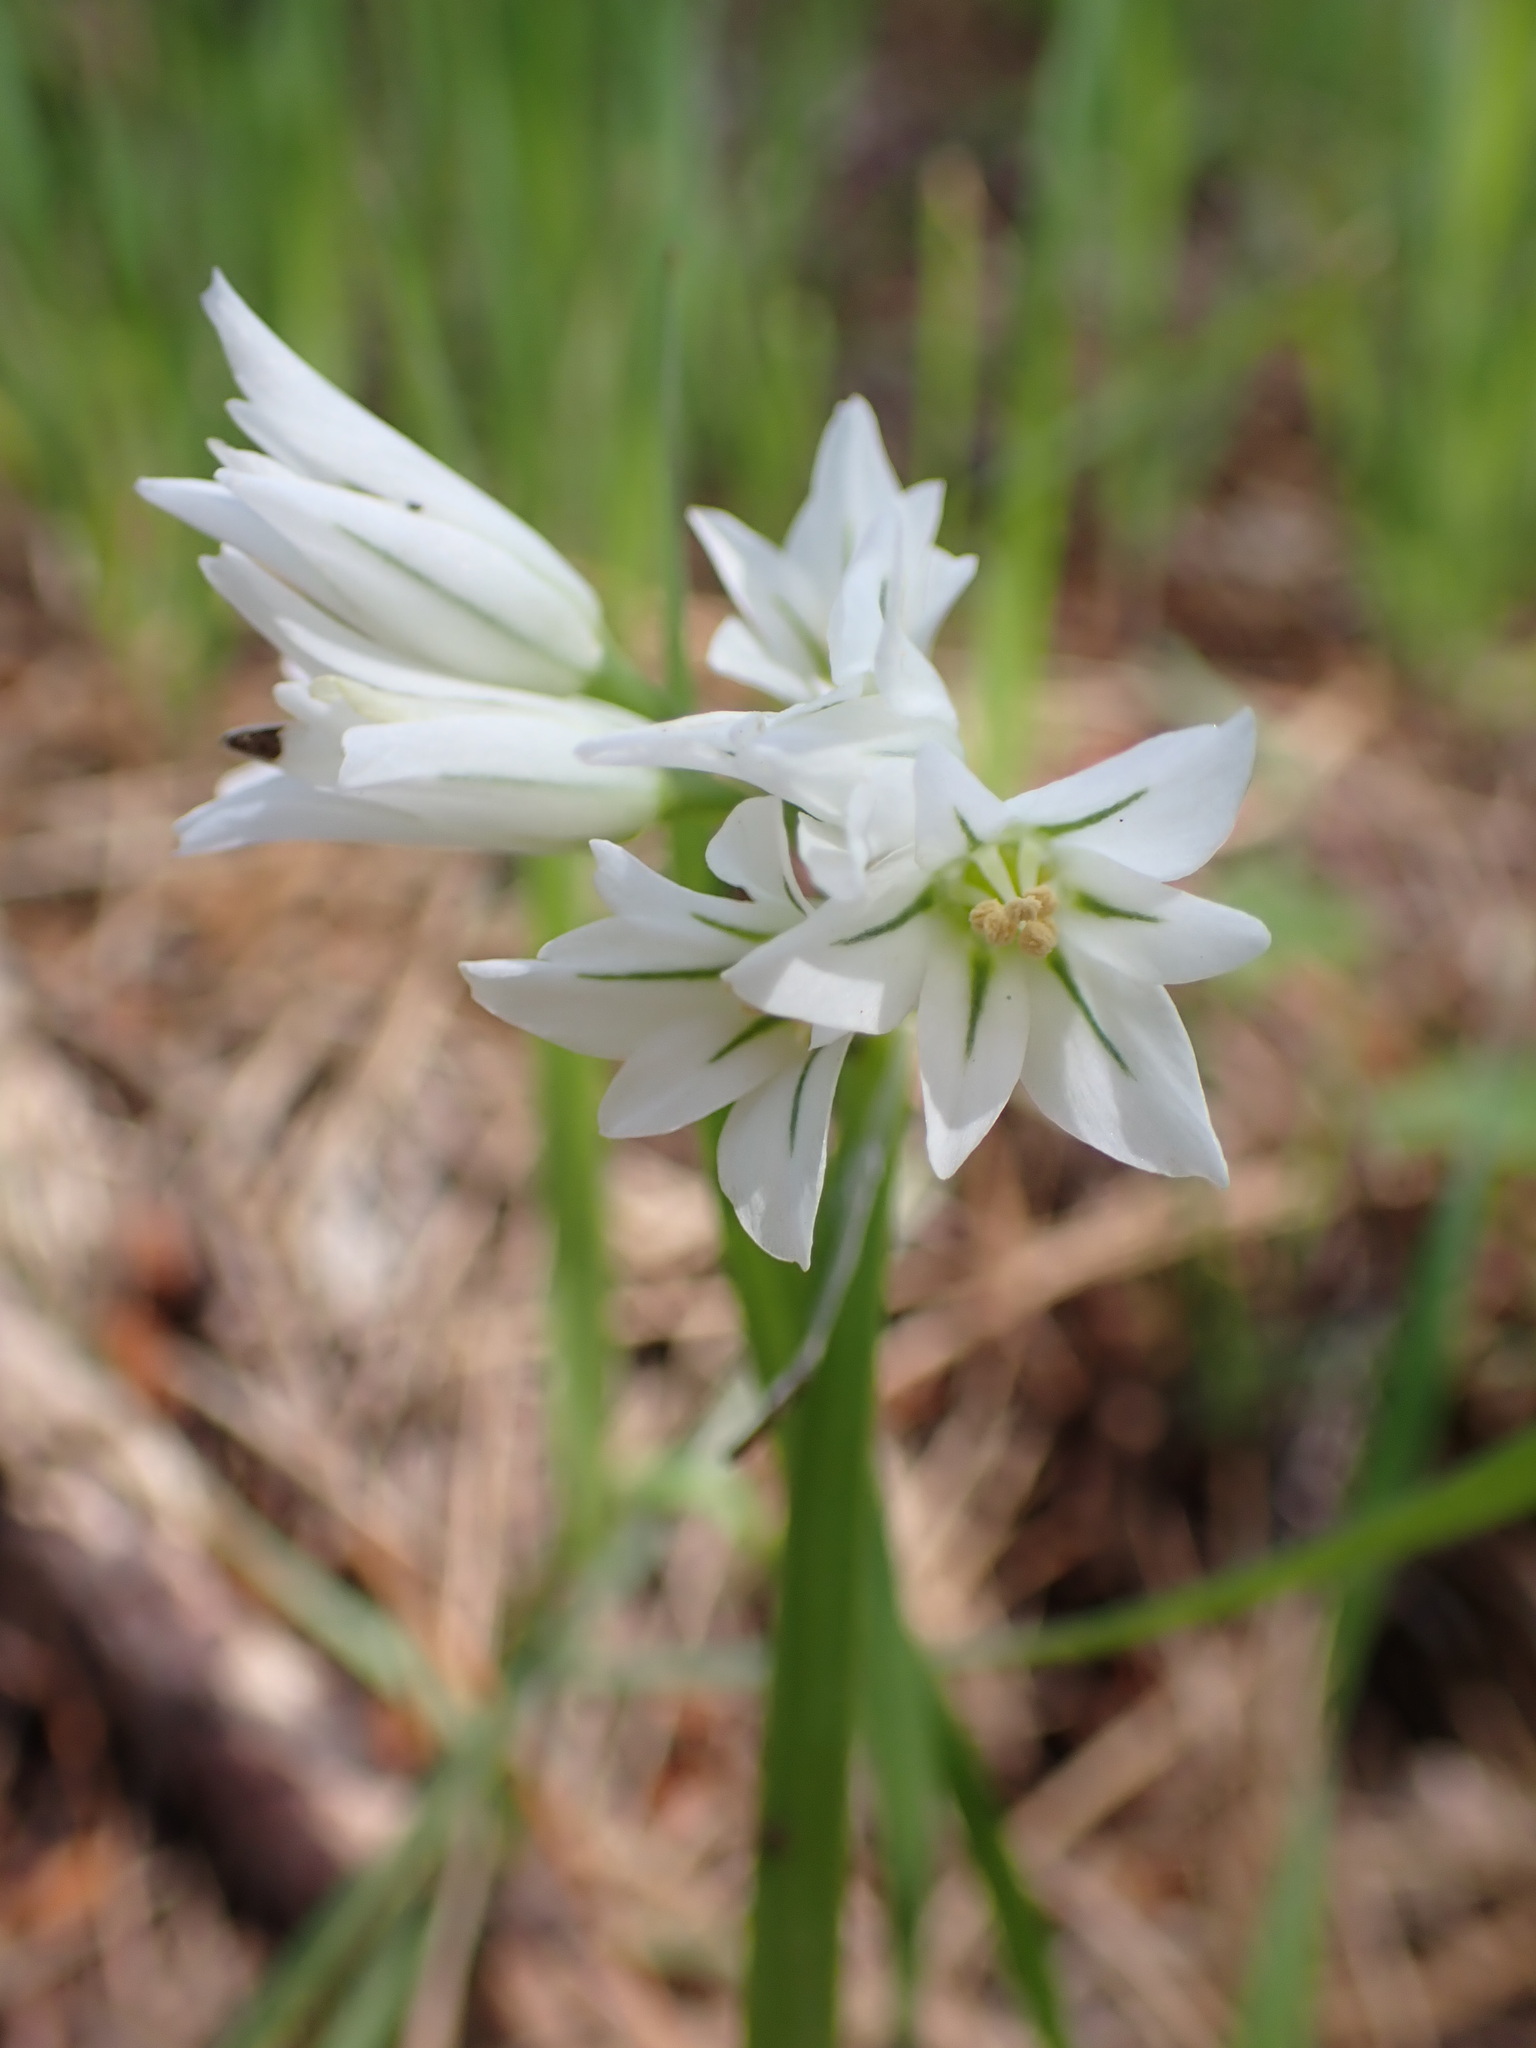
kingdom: Plantae
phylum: Tracheophyta
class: Liliopsida
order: Asparagales
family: Amaryllidaceae
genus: Allium
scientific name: Allium triquetrum
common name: Three-cornered garlic
